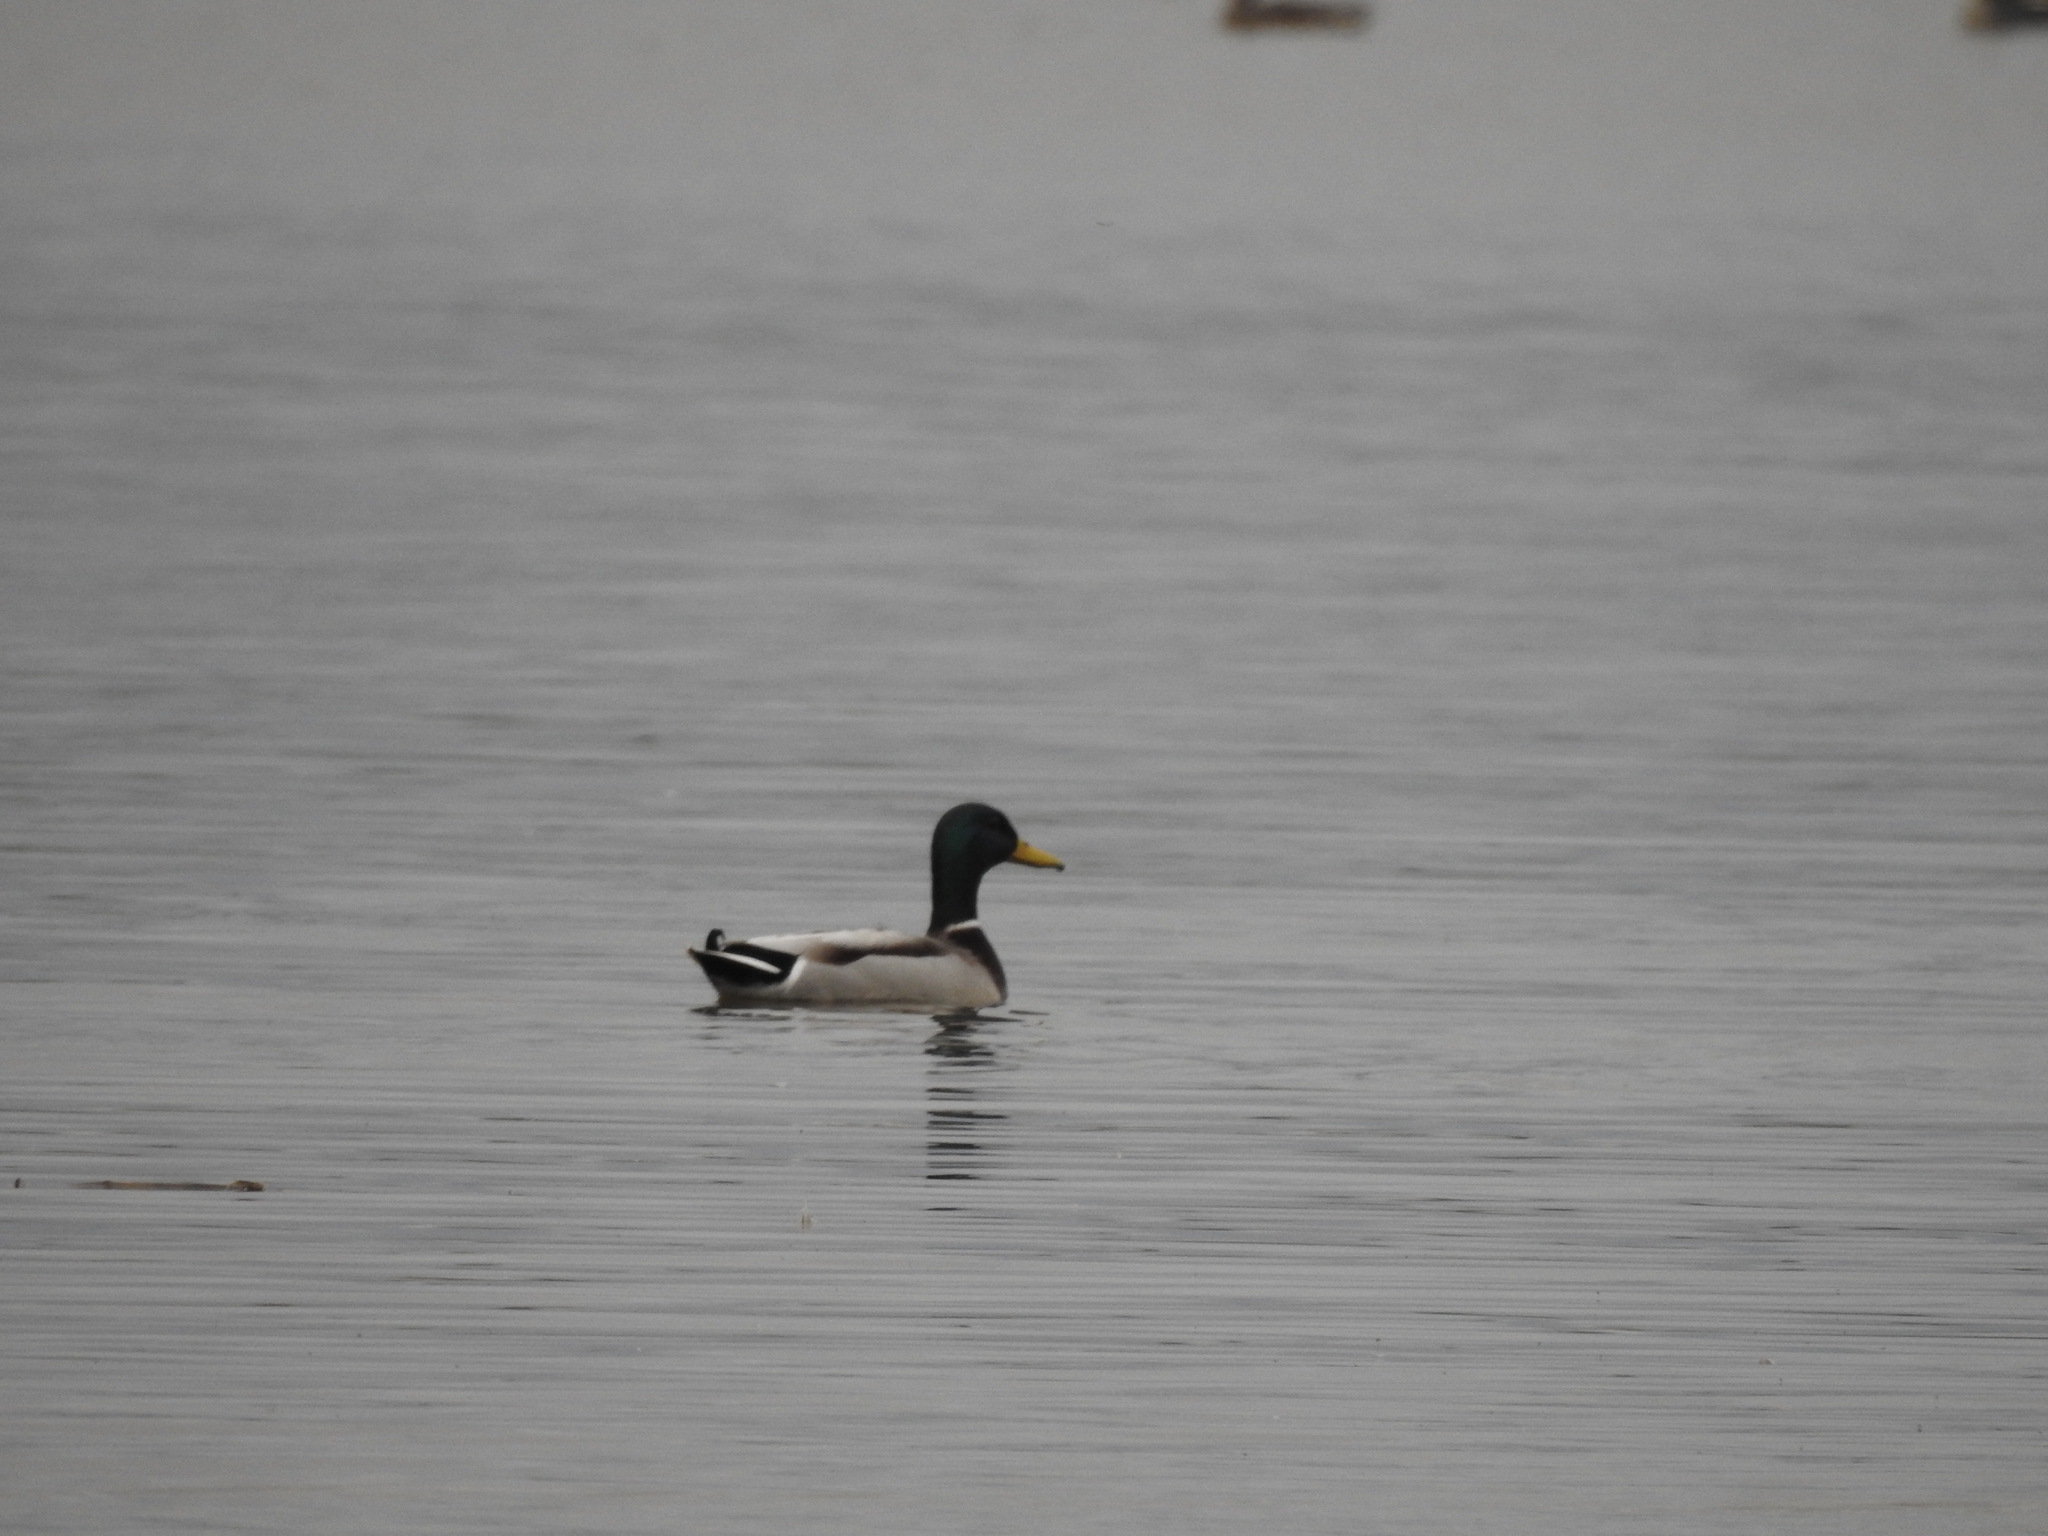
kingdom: Animalia
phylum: Chordata
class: Aves
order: Anseriformes
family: Anatidae
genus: Anas
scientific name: Anas platyrhynchos
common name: Mallard
